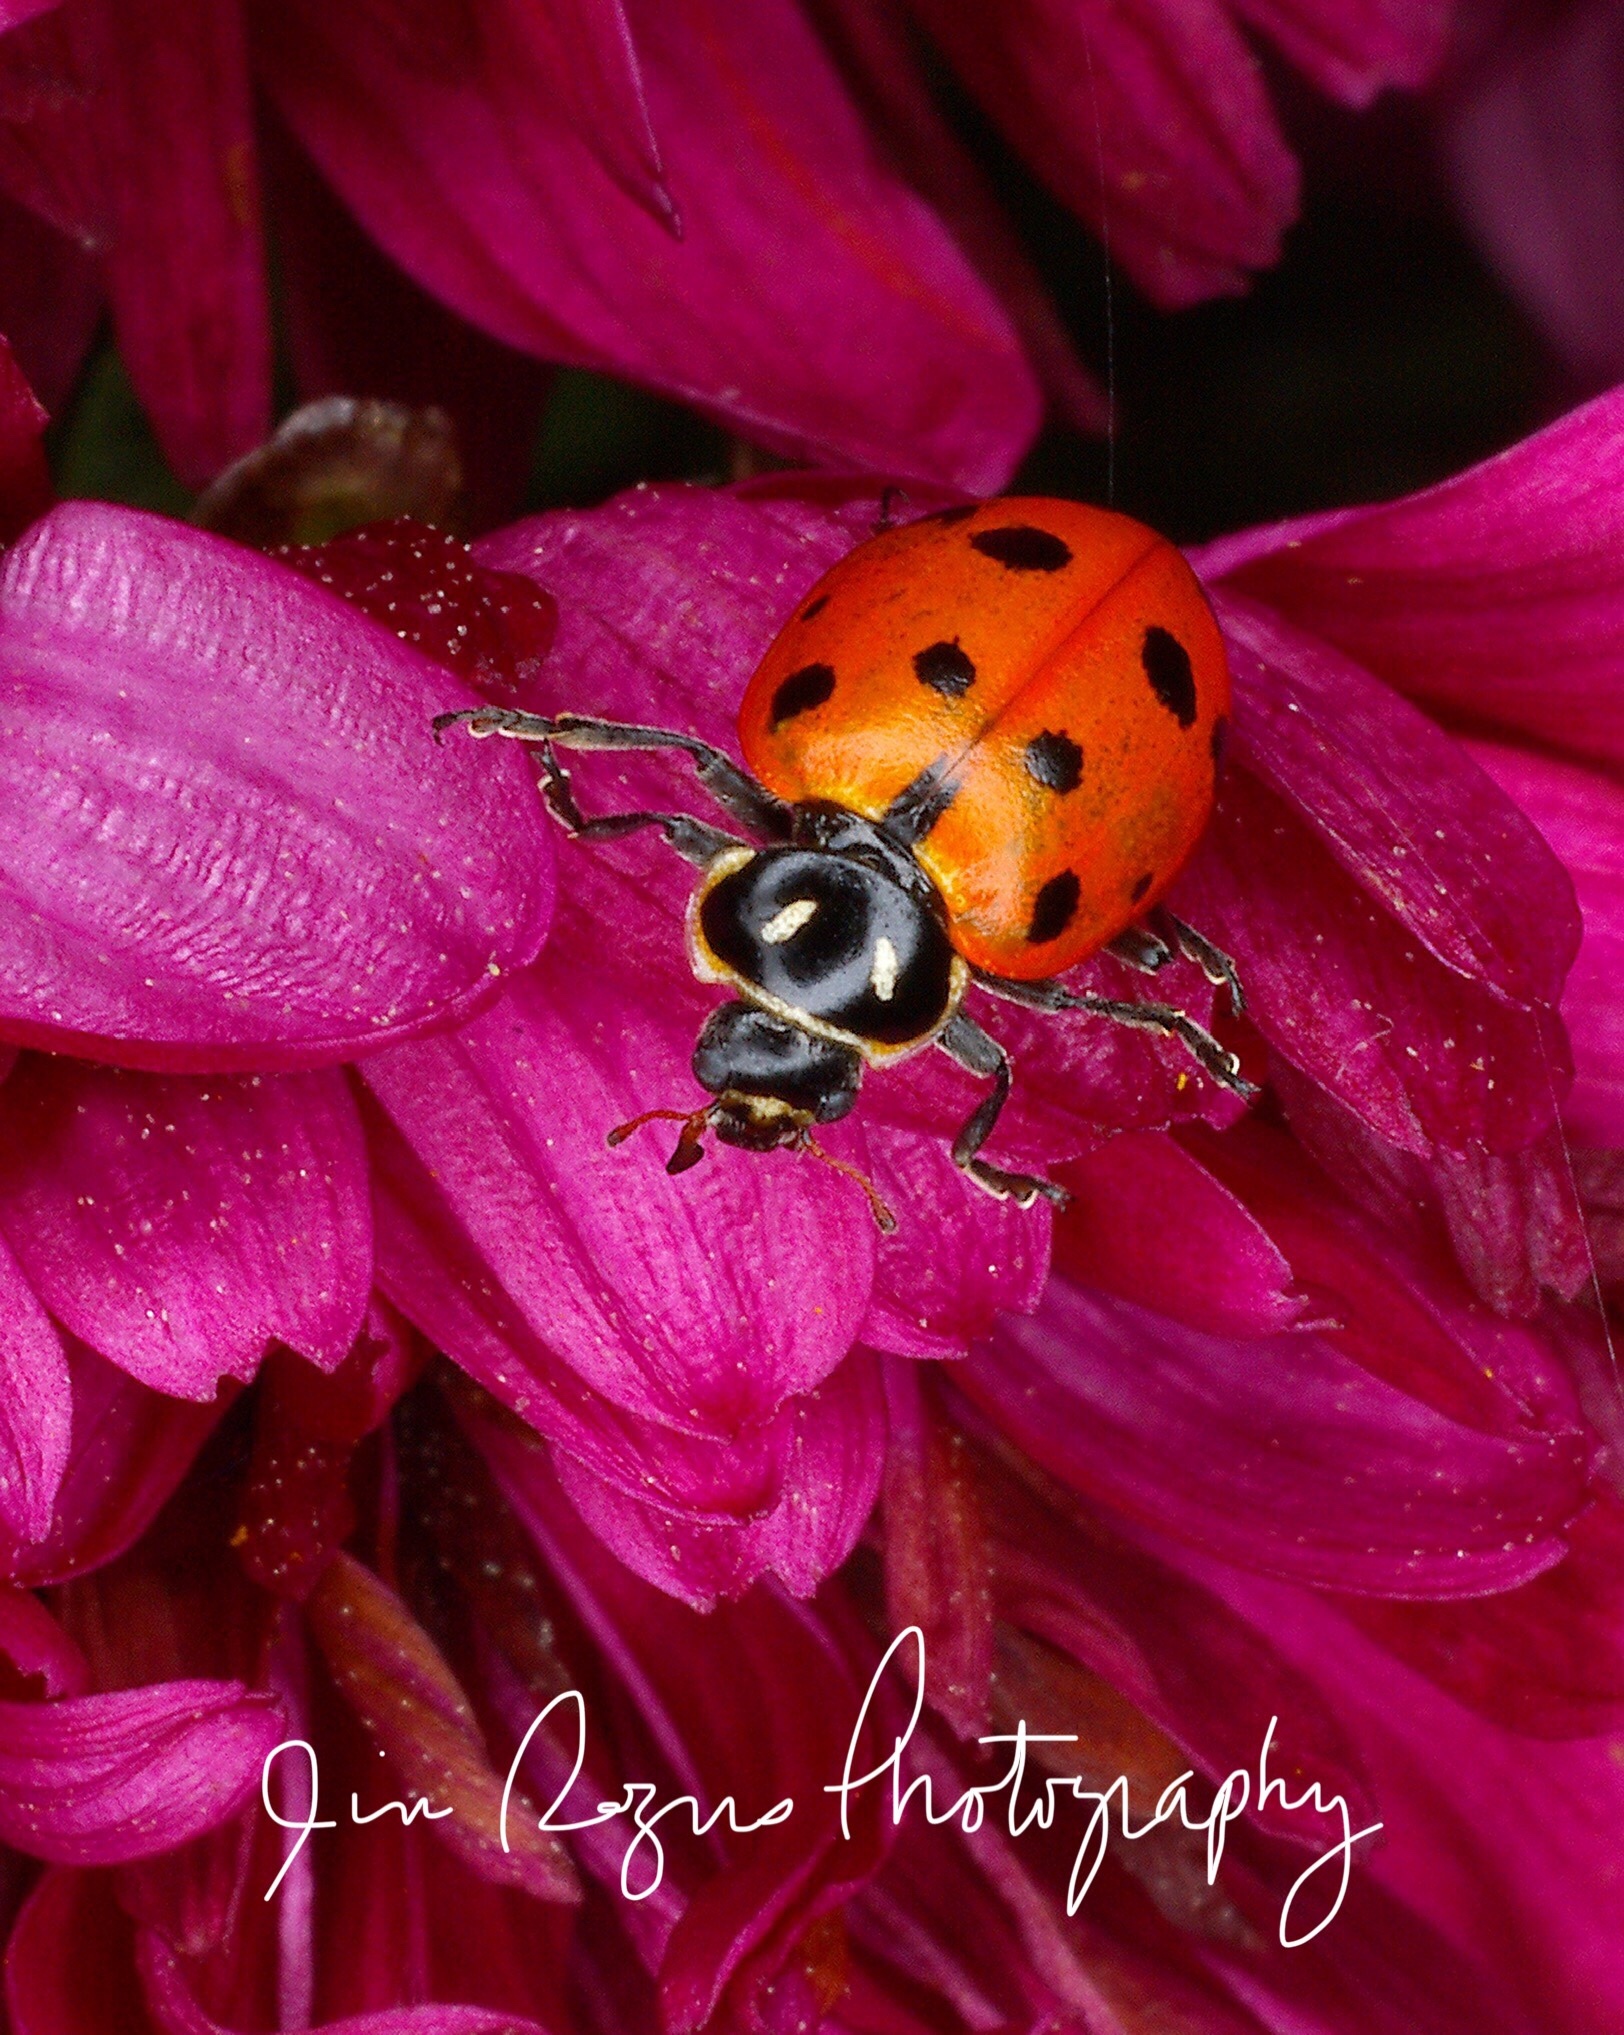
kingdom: Animalia
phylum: Arthropoda
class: Insecta
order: Coleoptera
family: Coccinellidae
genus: Hippodamia
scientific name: Hippodamia convergens
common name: Convergent lady beetle
